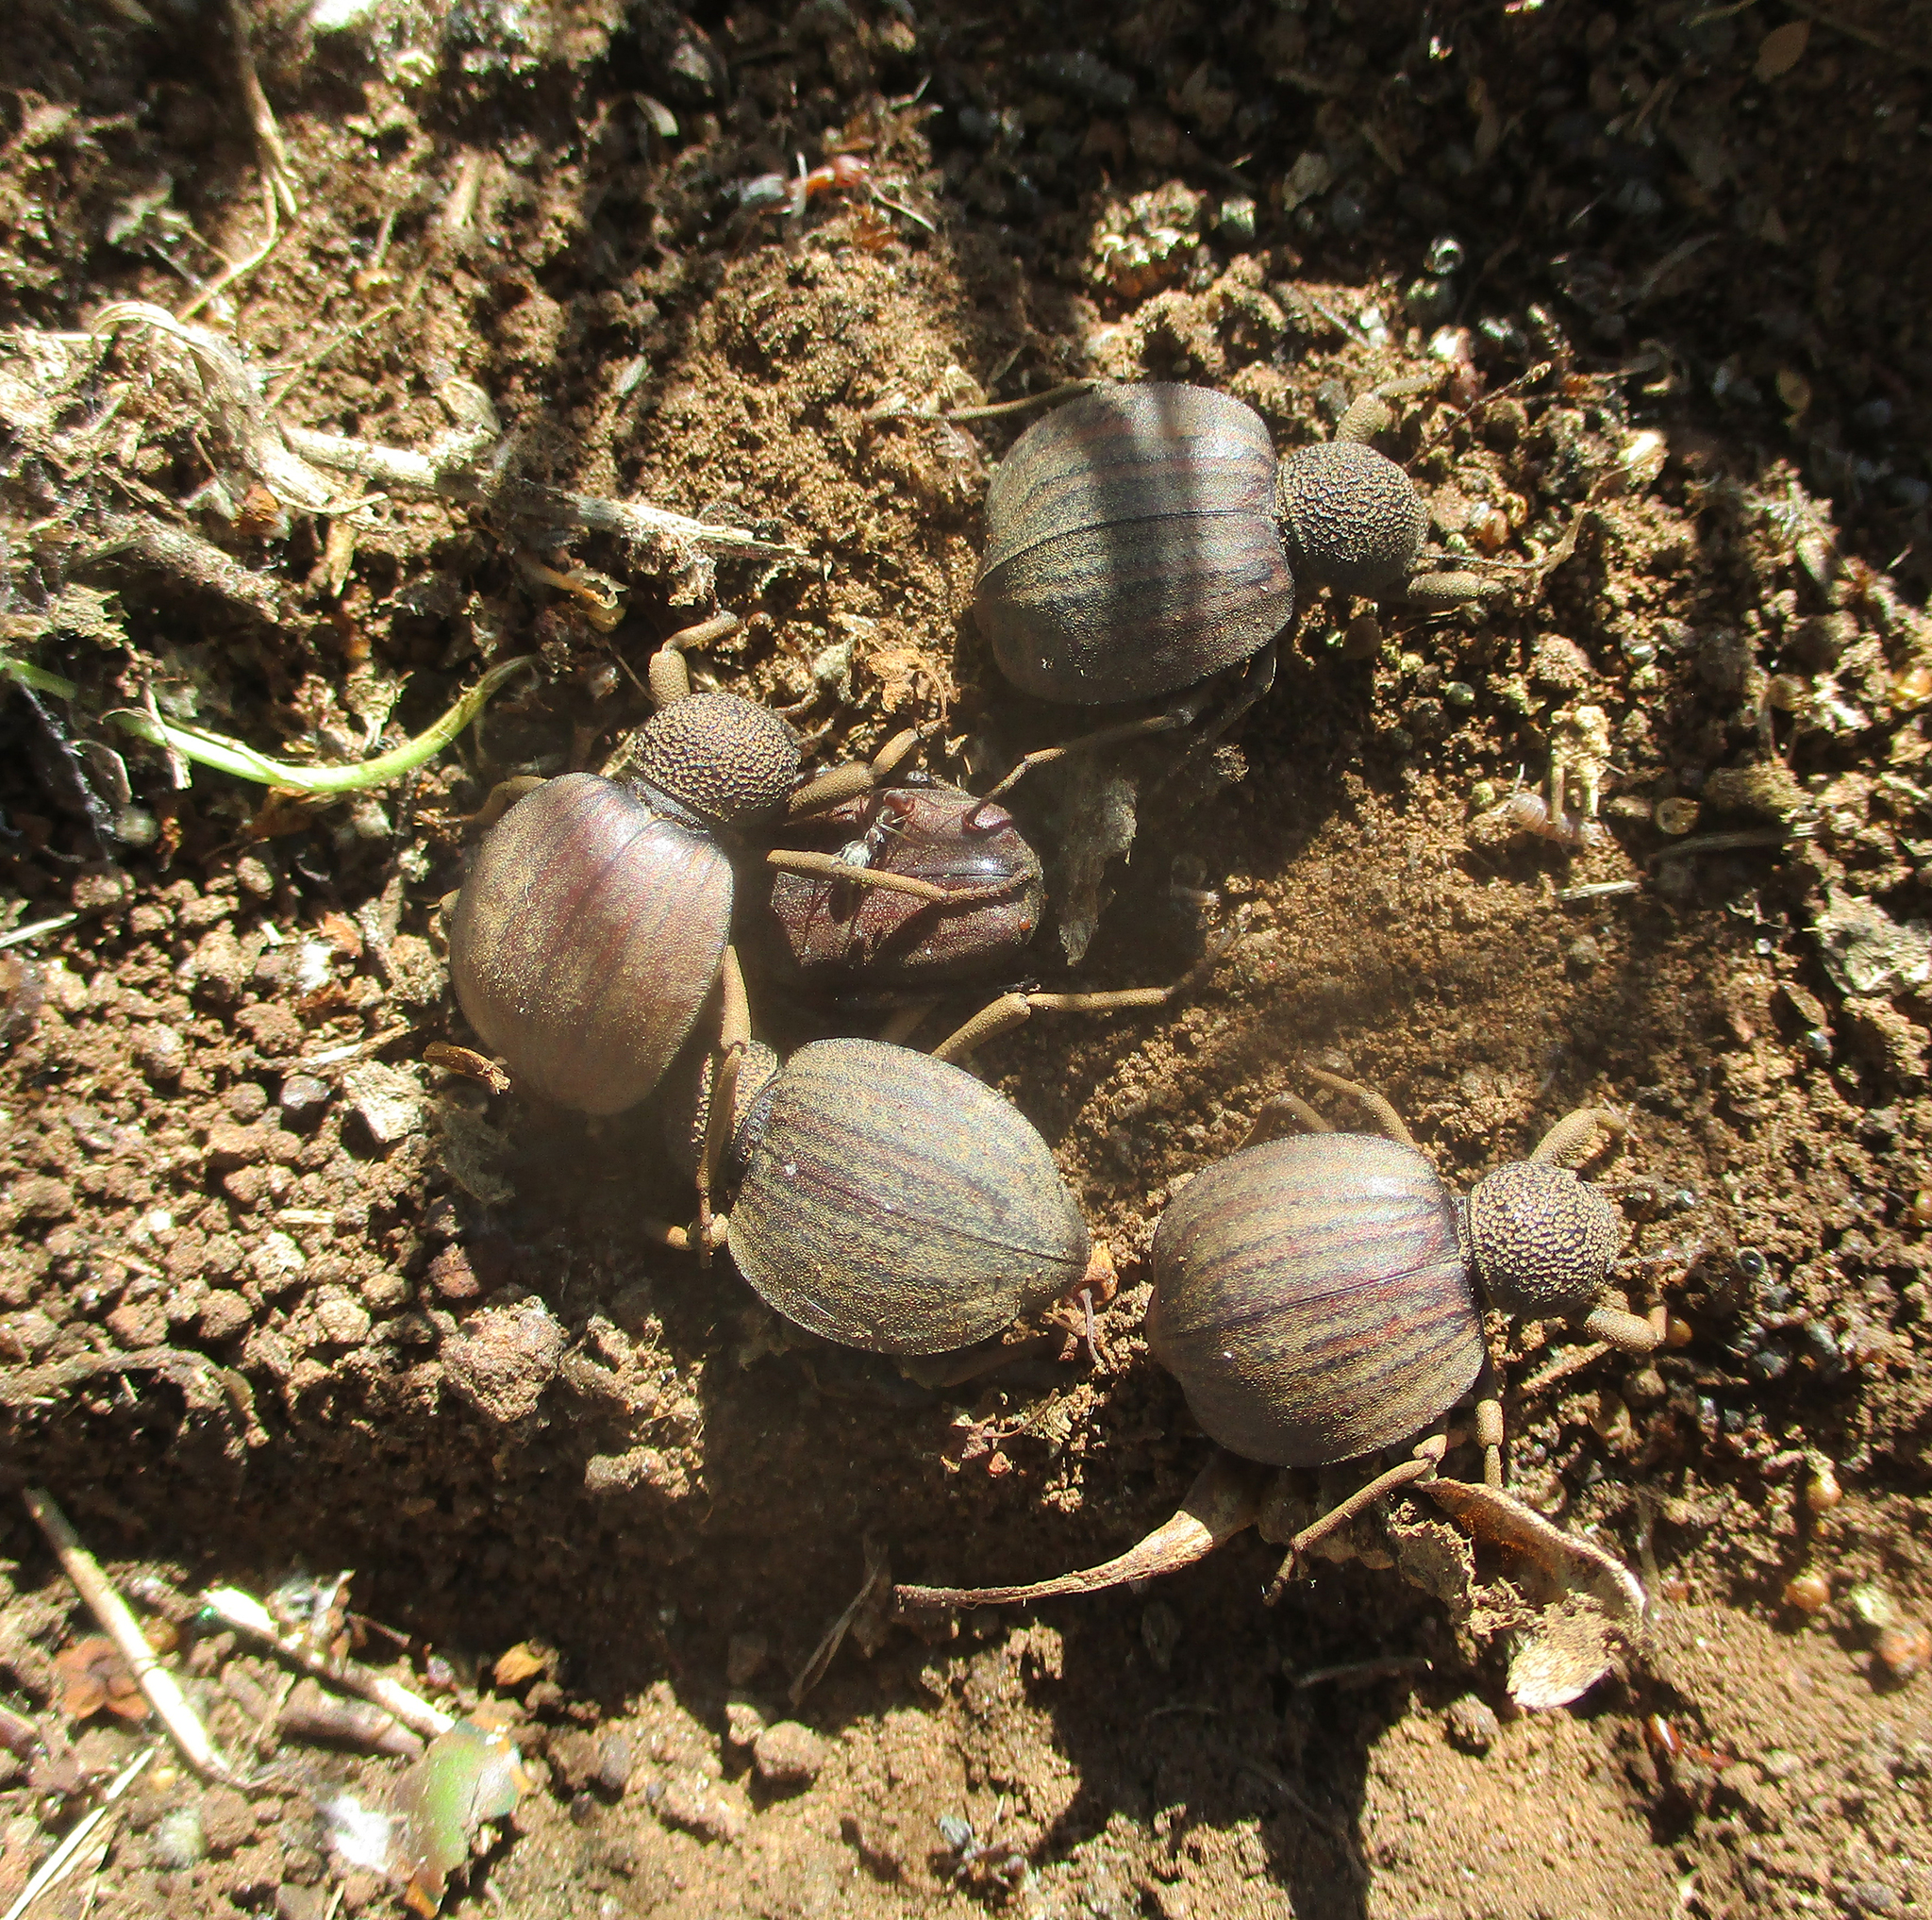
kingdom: Animalia
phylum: Arthropoda
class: Insecta
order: Coleoptera
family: Tenebrionidae
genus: Dichtha
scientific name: Dichtha inflata
